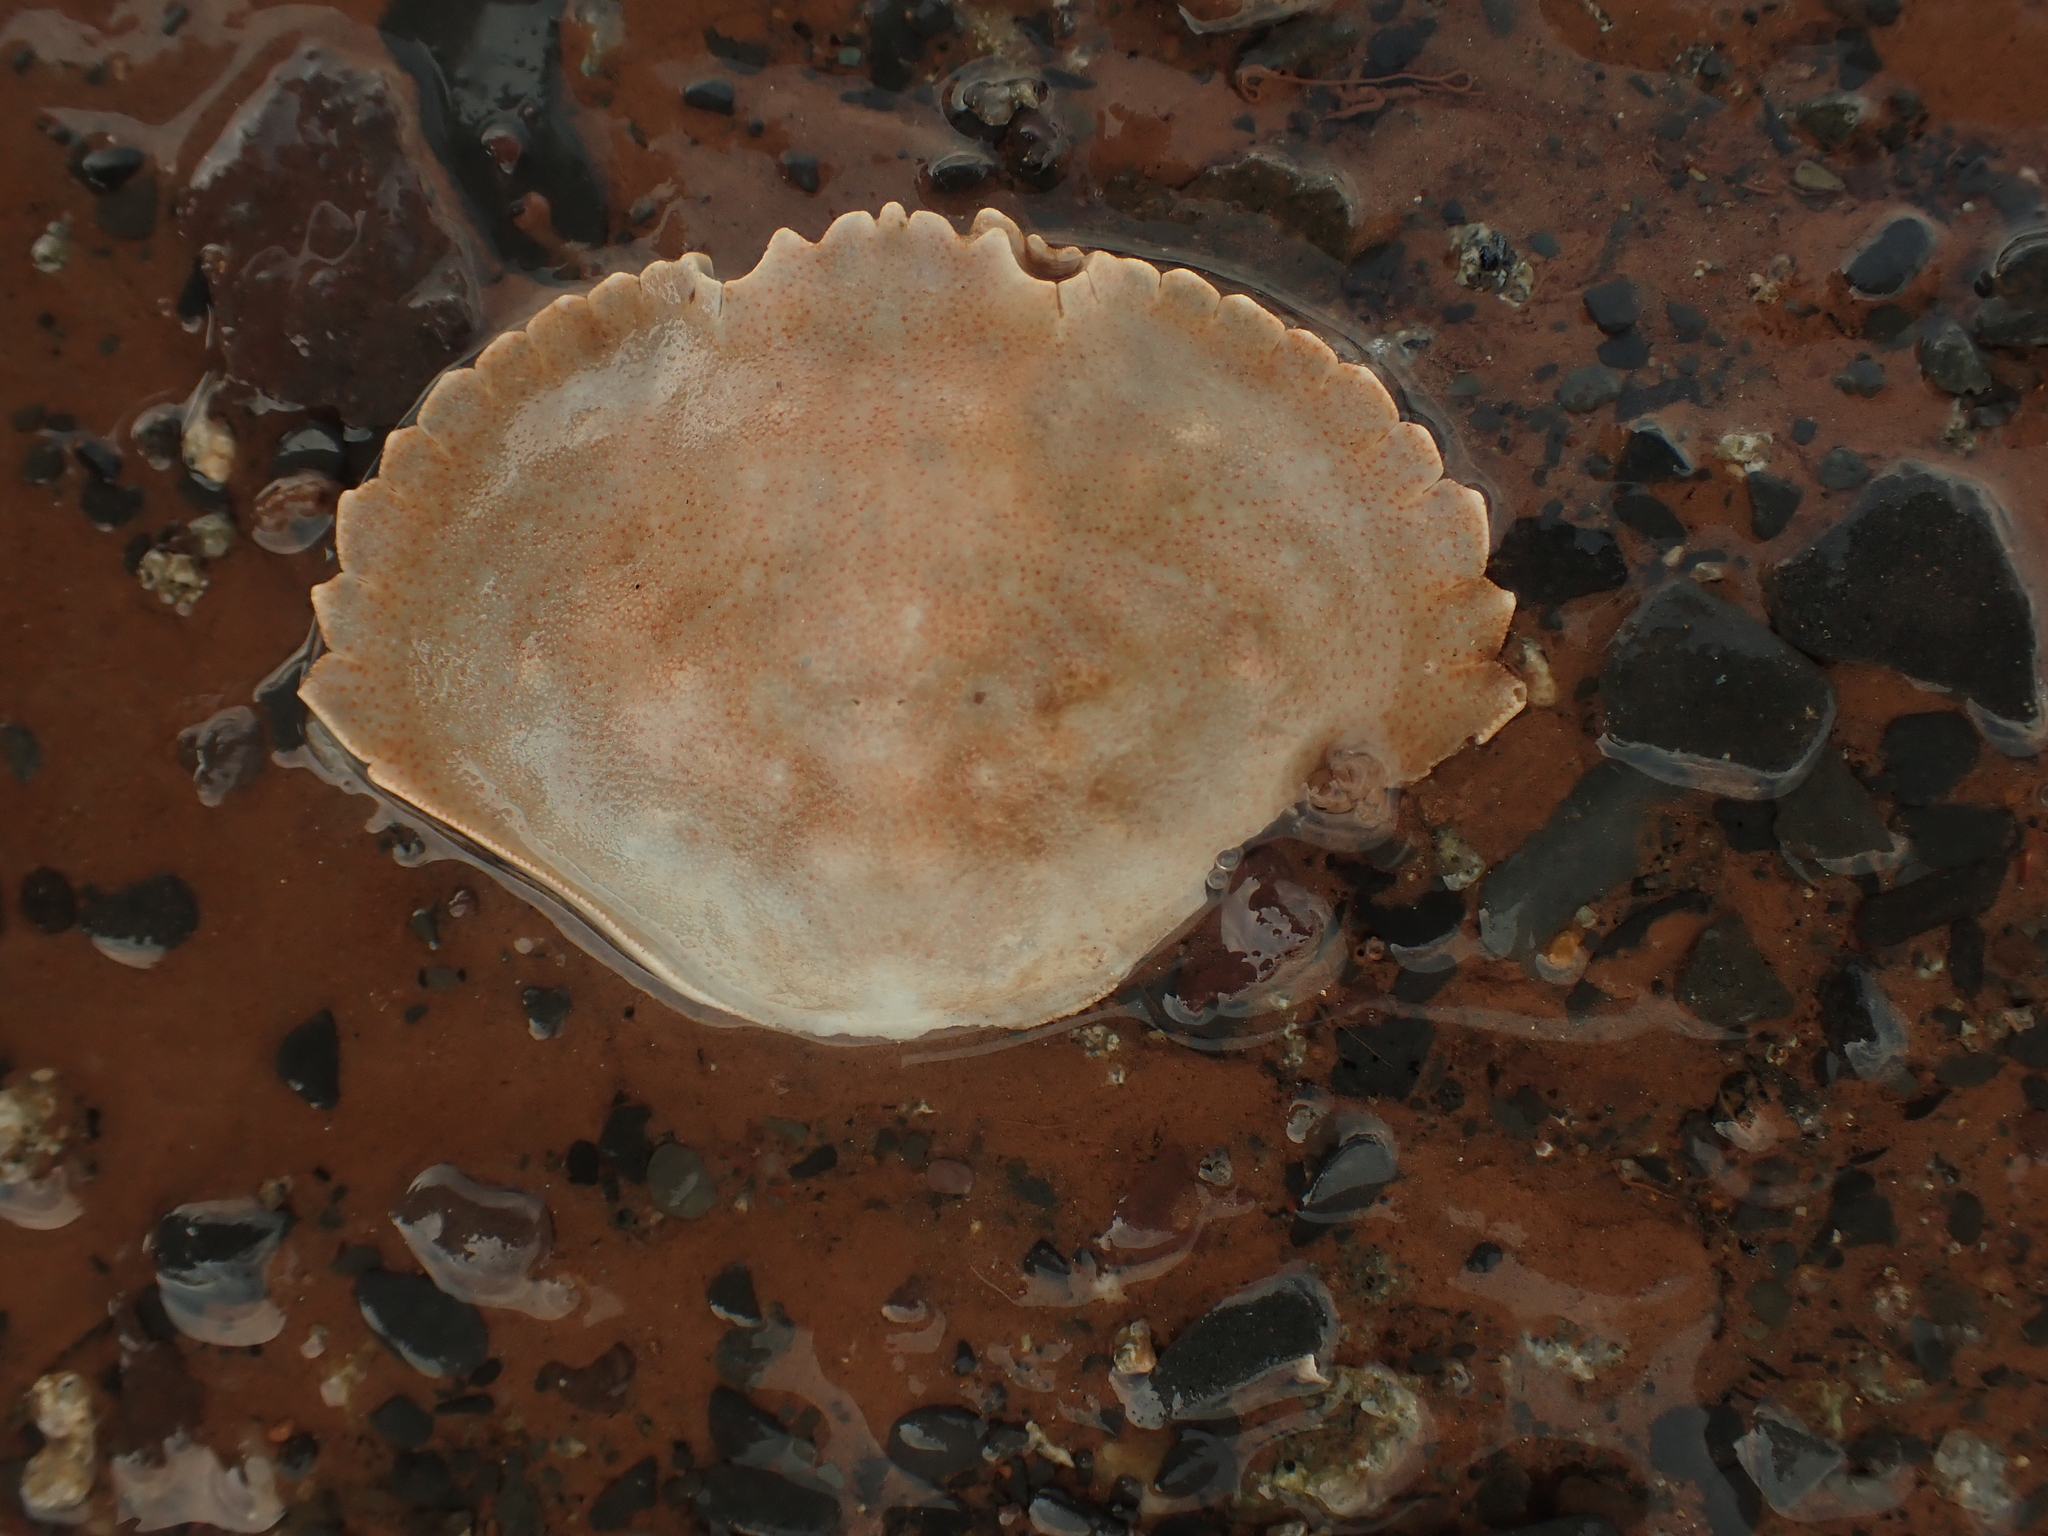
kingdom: Animalia
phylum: Arthropoda
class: Malacostraca
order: Decapoda
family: Cancridae
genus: Cancer
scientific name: Cancer irroratus
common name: Atlantic rock crab
